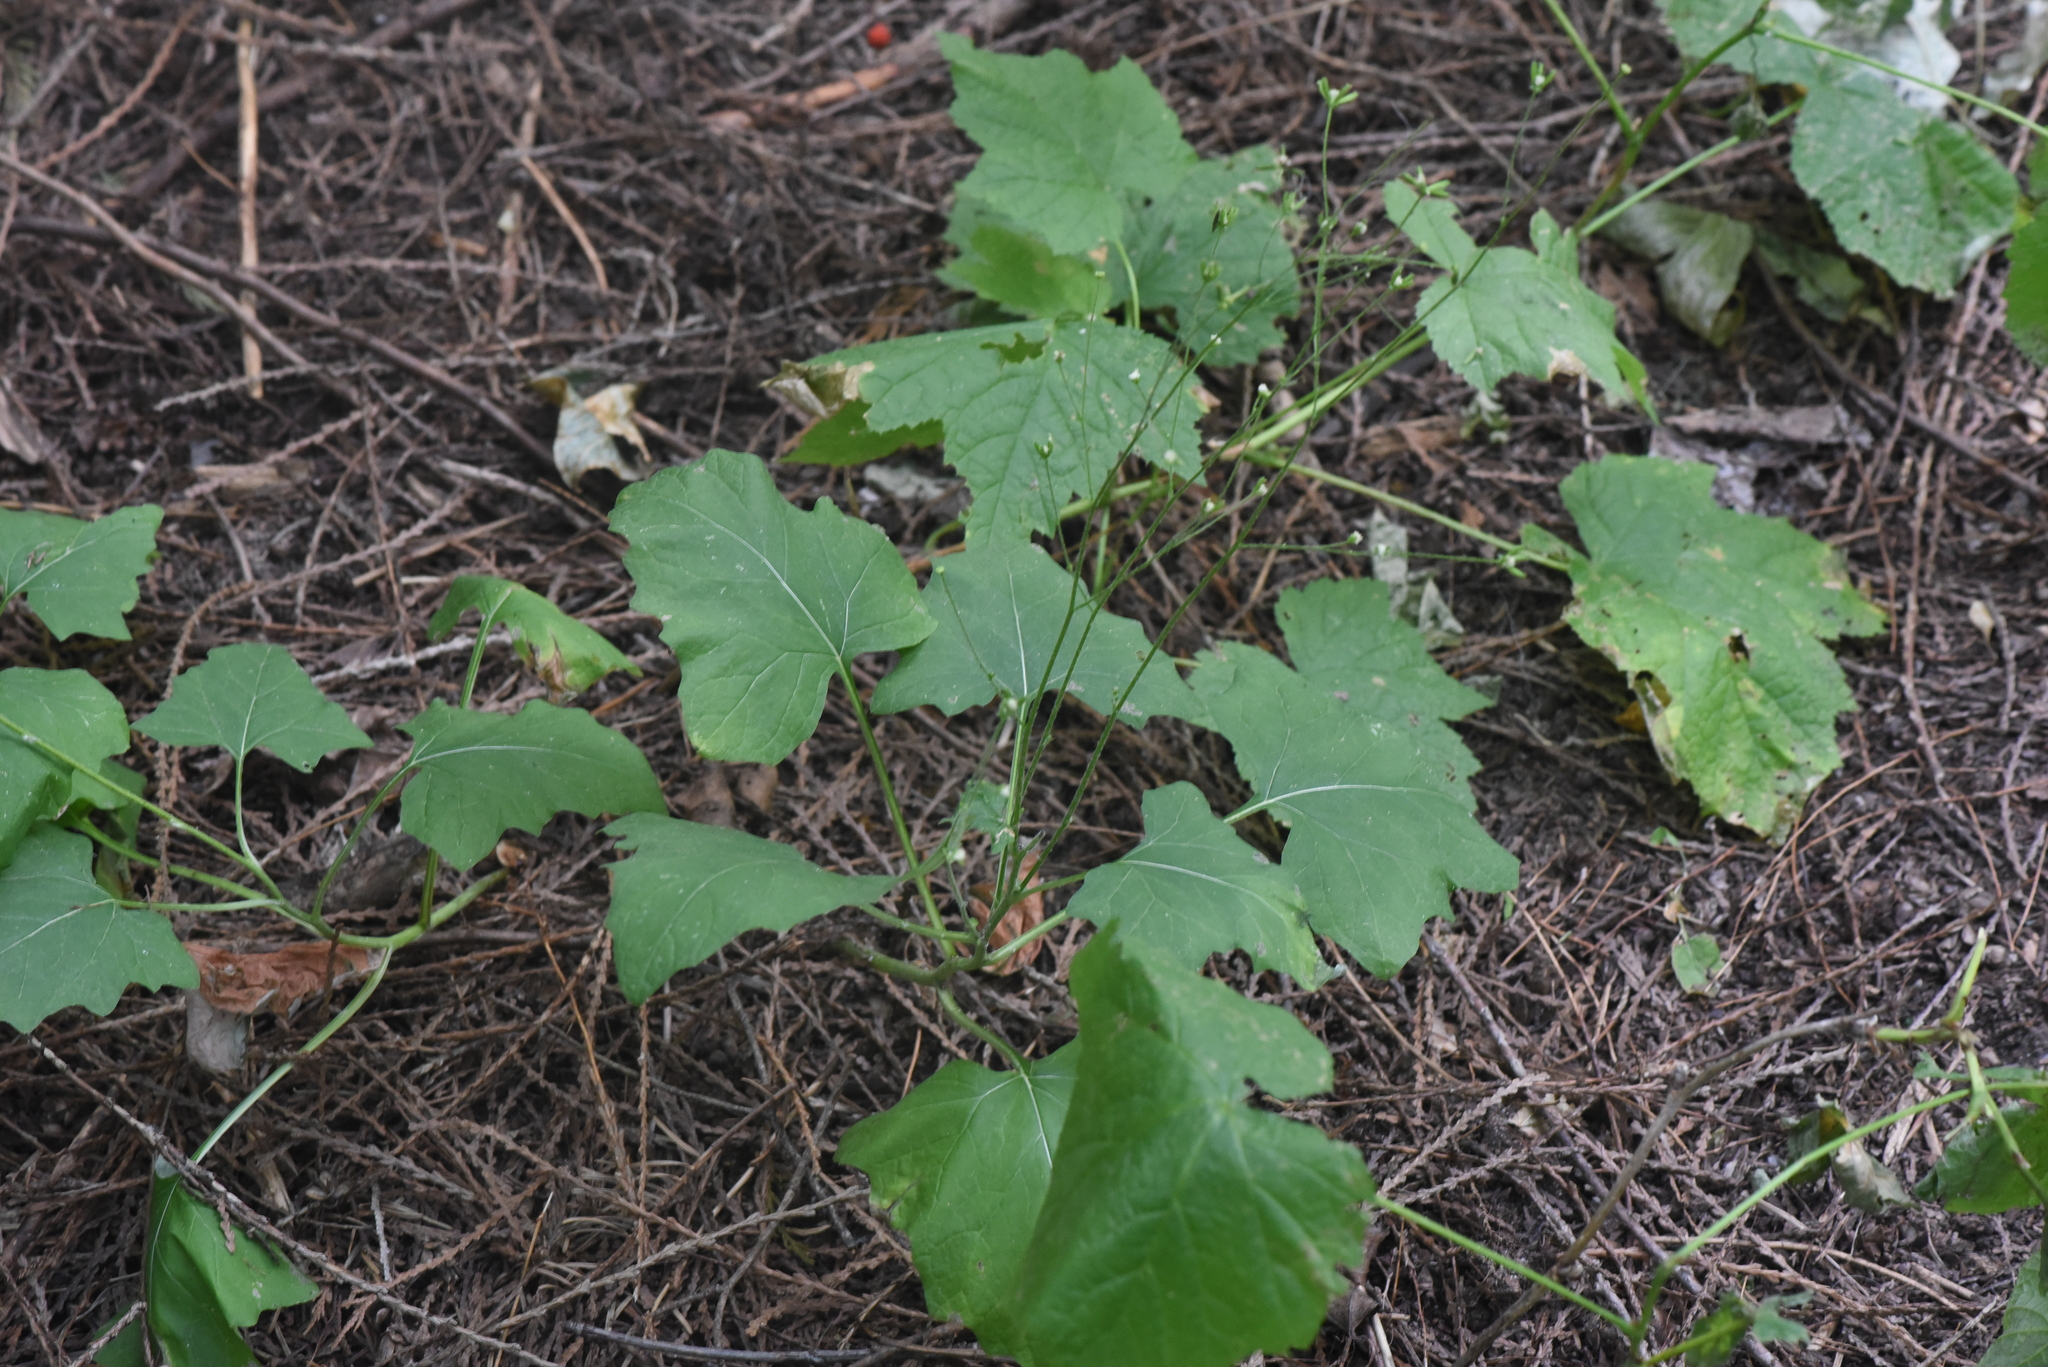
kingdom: Plantae
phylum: Tracheophyta
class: Magnoliopsida
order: Asterales
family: Asteraceae
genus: Adenocaulon
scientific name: Adenocaulon bicolor
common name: Trailplant
